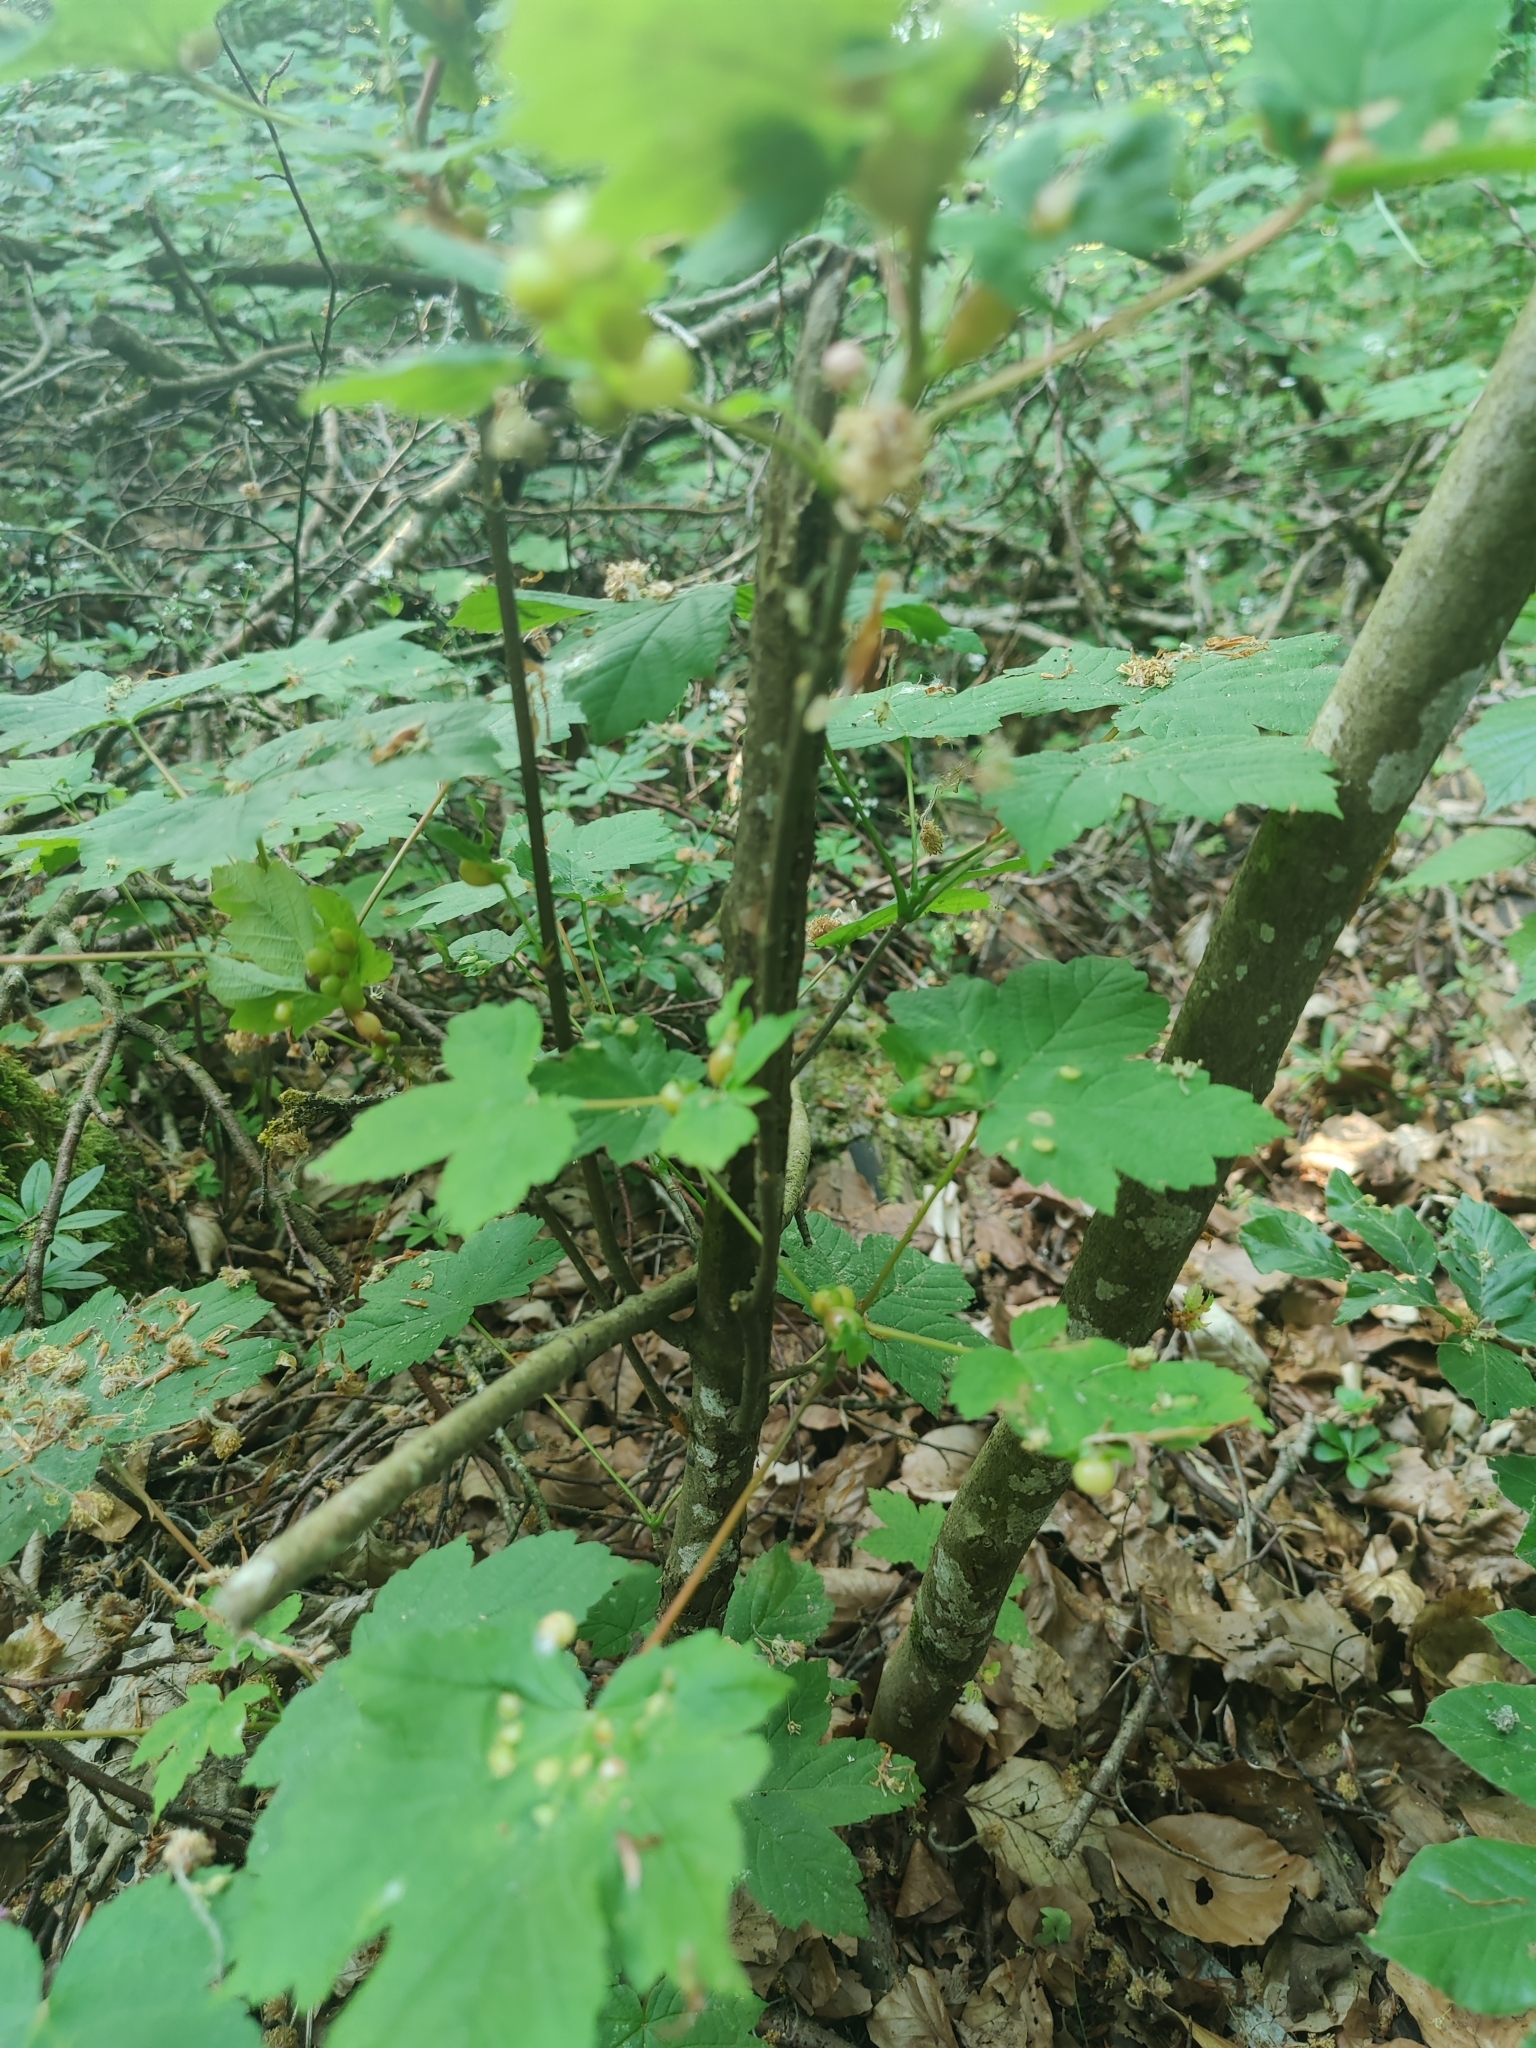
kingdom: Animalia
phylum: Arthropoda
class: Insecta
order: Hymenoptera
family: Cynipidae
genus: Pediaspis
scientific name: Pediaspis aceris
